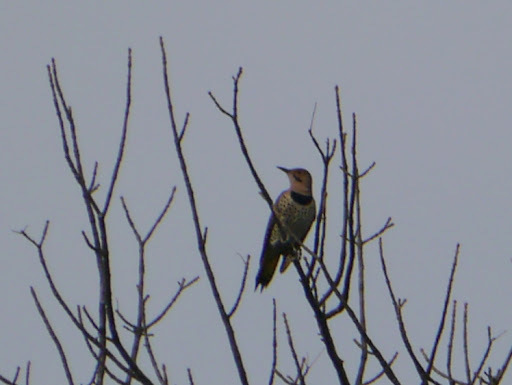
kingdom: Animalia
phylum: Chordata
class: Aves
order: Piciformes
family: Picidae
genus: Colaptes
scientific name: Colaptes auratus
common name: Northern flicker
